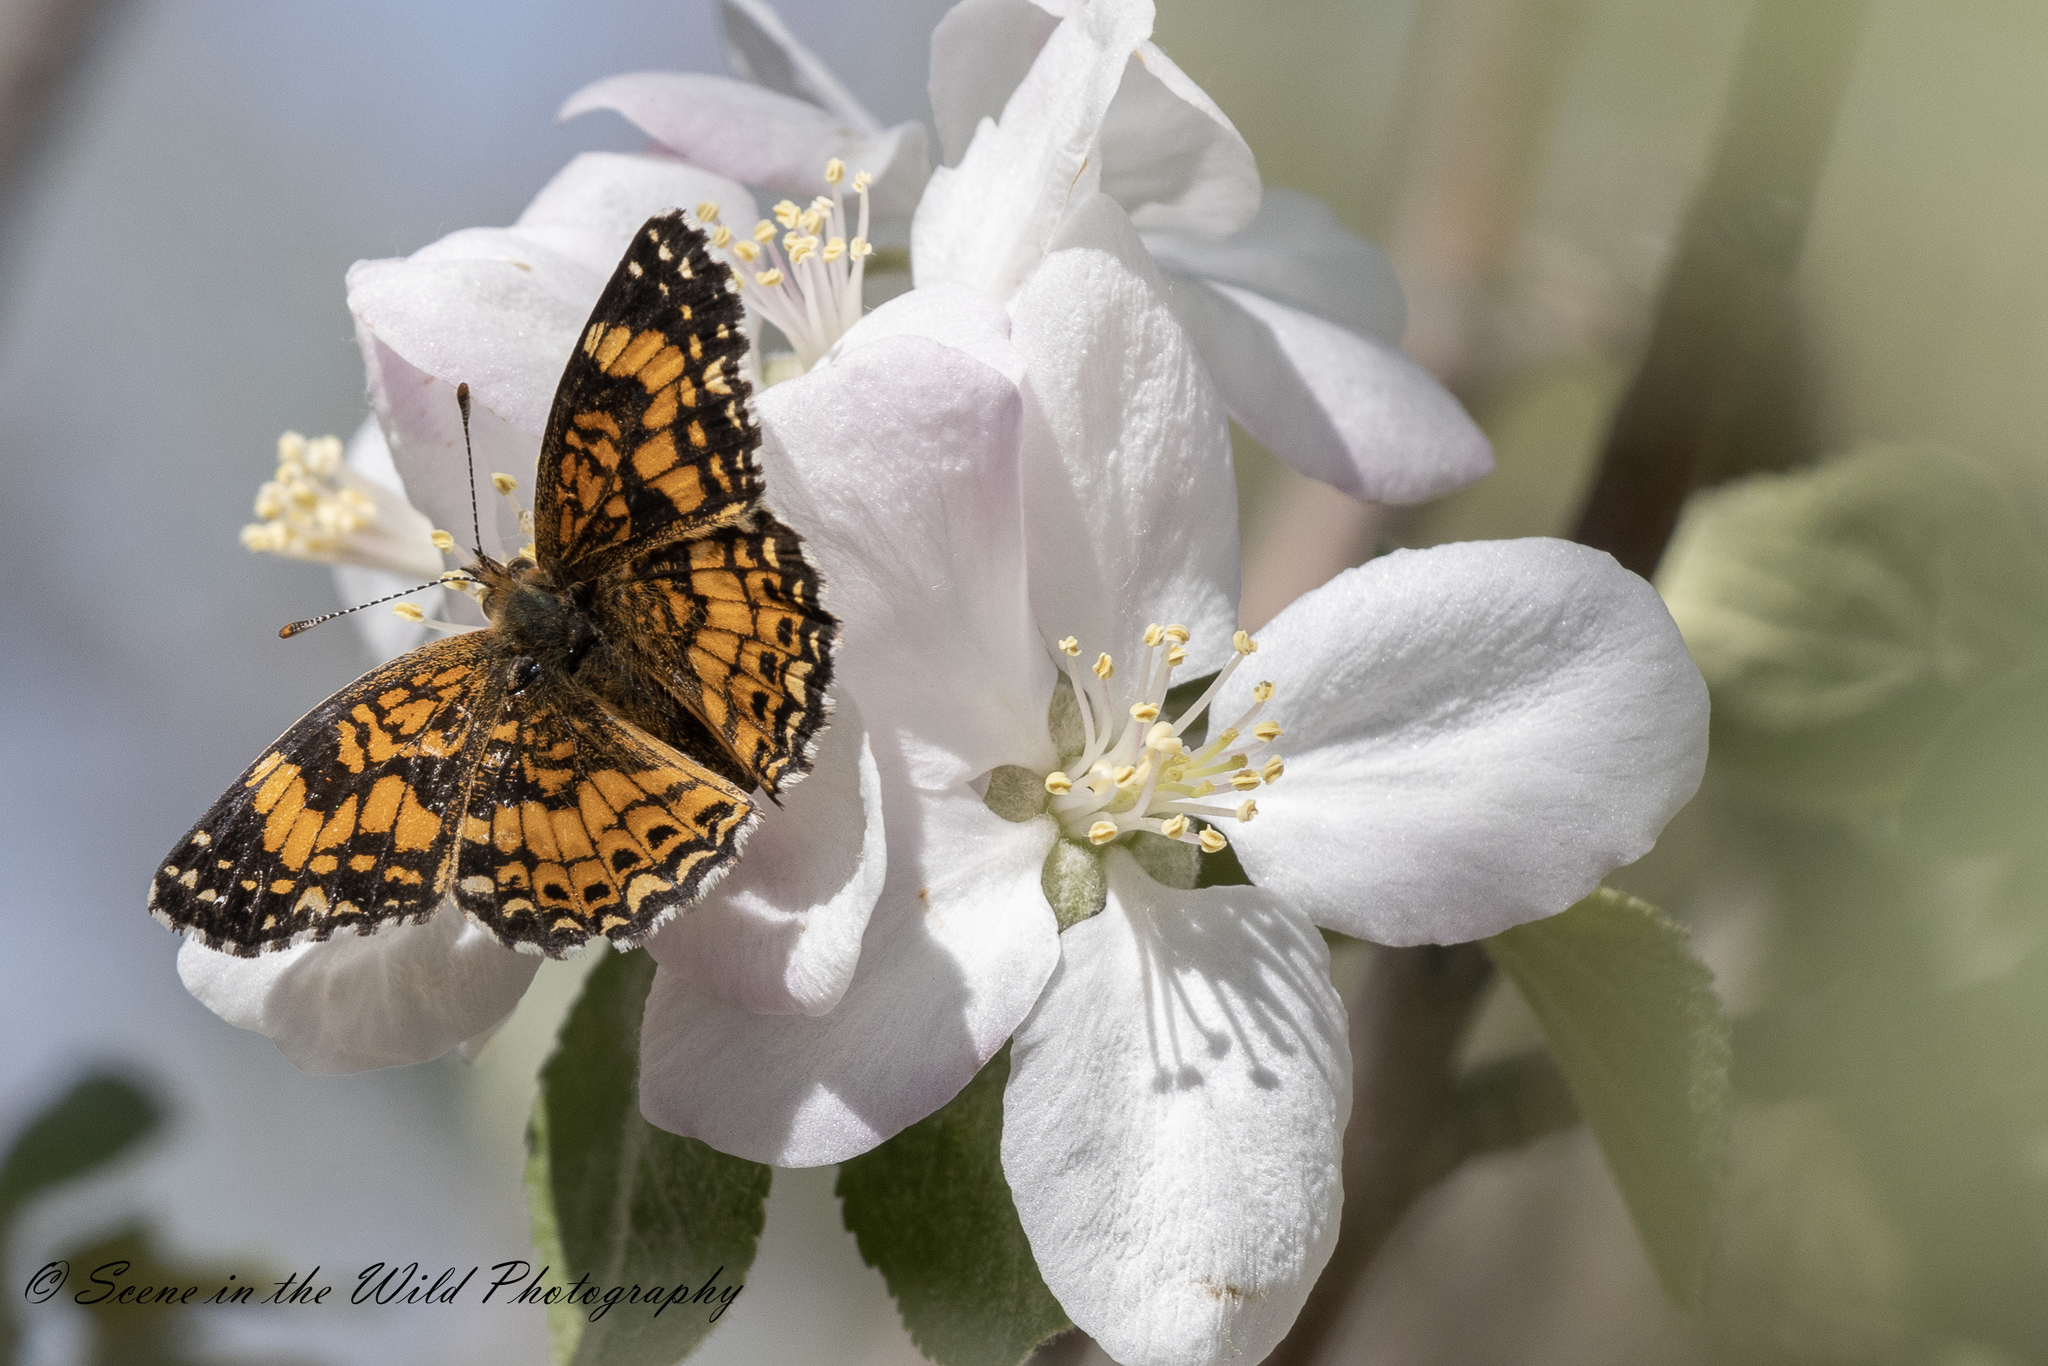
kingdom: Animalia
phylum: Arthropoda
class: Insecta
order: Lepidoptera
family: Nymphalidae
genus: Chlosyne
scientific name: Chlosyne gorgone
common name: Gorgone checkerspot
